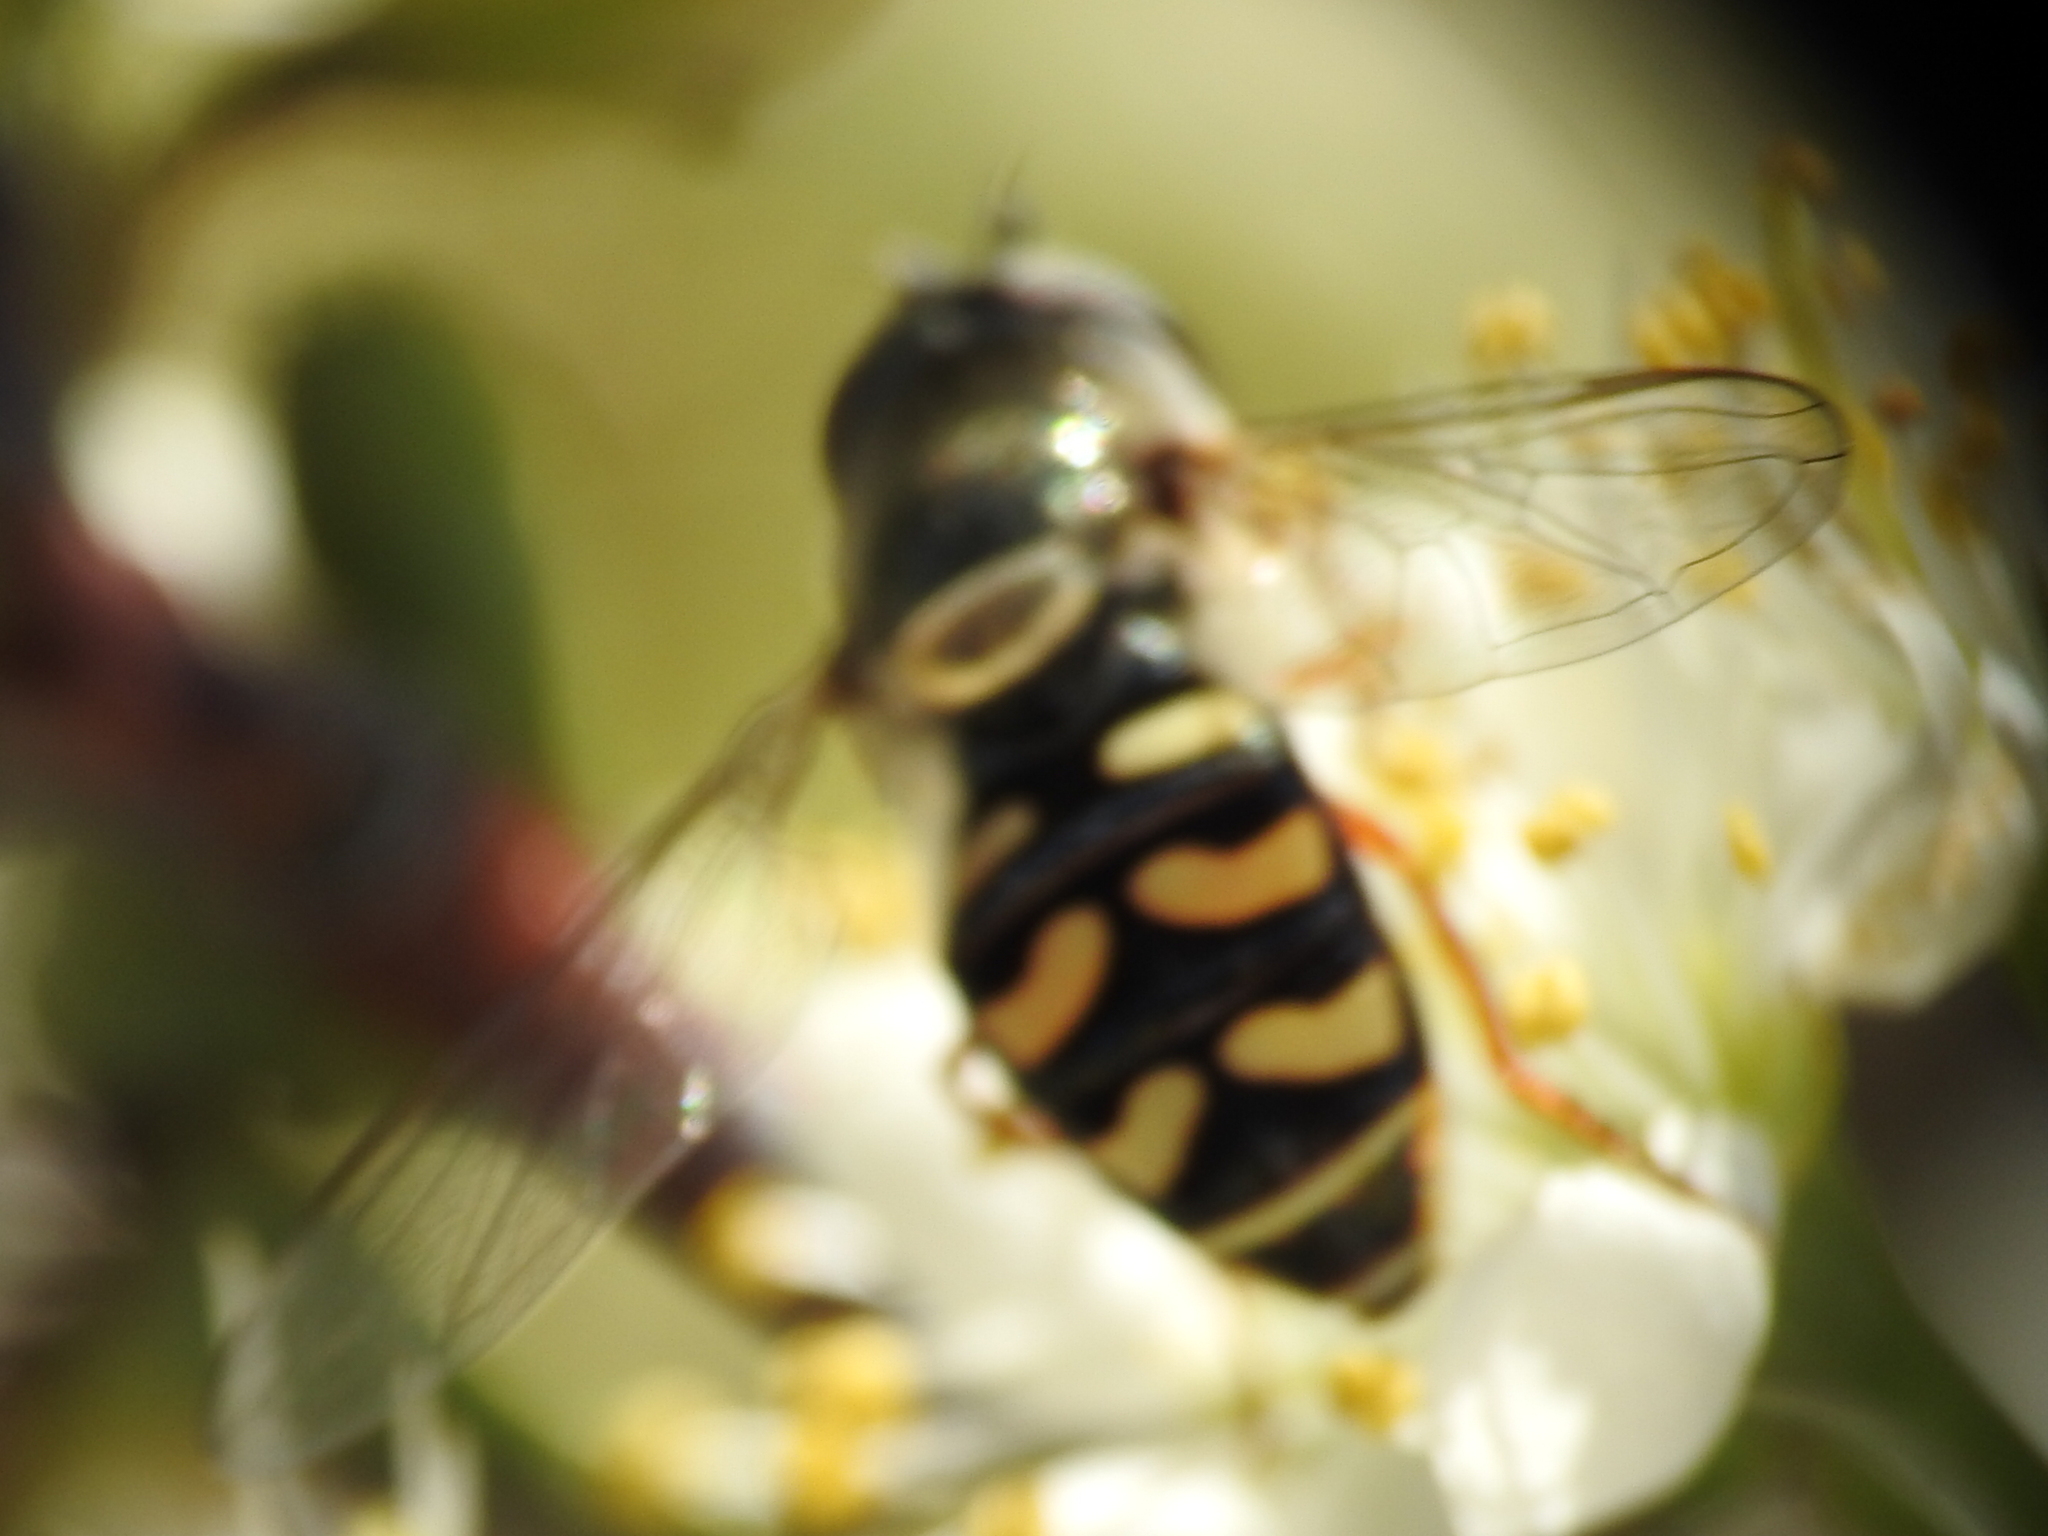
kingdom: Animalia
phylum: Arthropoda
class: Insecta
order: Diptera
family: Syrphidae
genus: Eupeodes
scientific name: Eupeodes volucris
